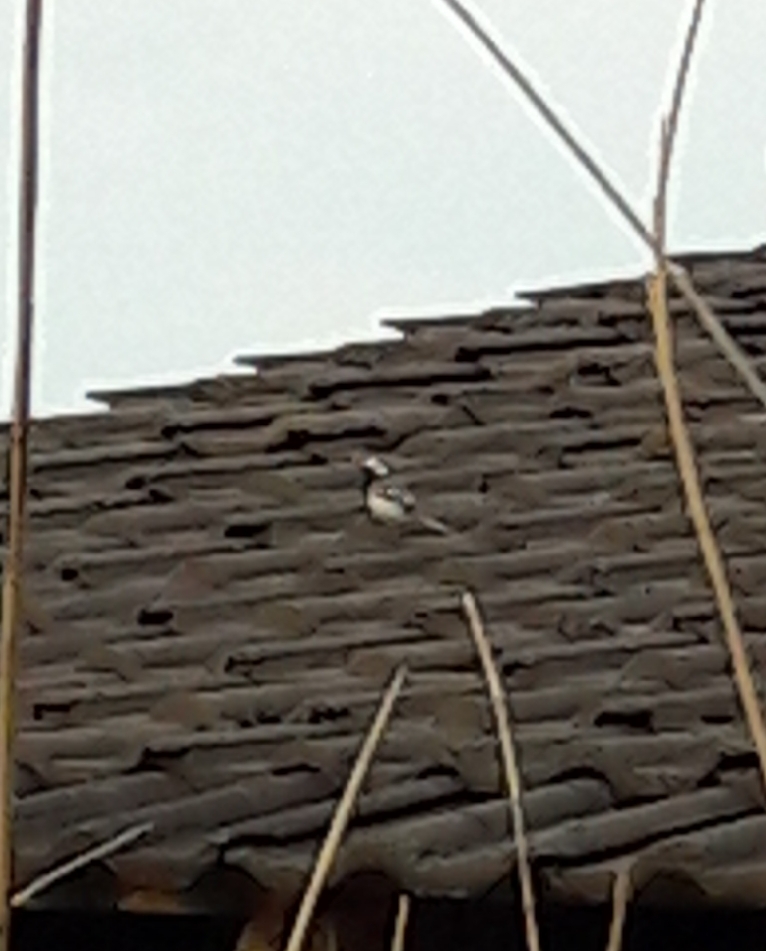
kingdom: Animalia
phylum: Chordata
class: Aves
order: Passeriformes
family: Motacillidae
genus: Motacilla
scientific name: Motacilla alba
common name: White wagtail
